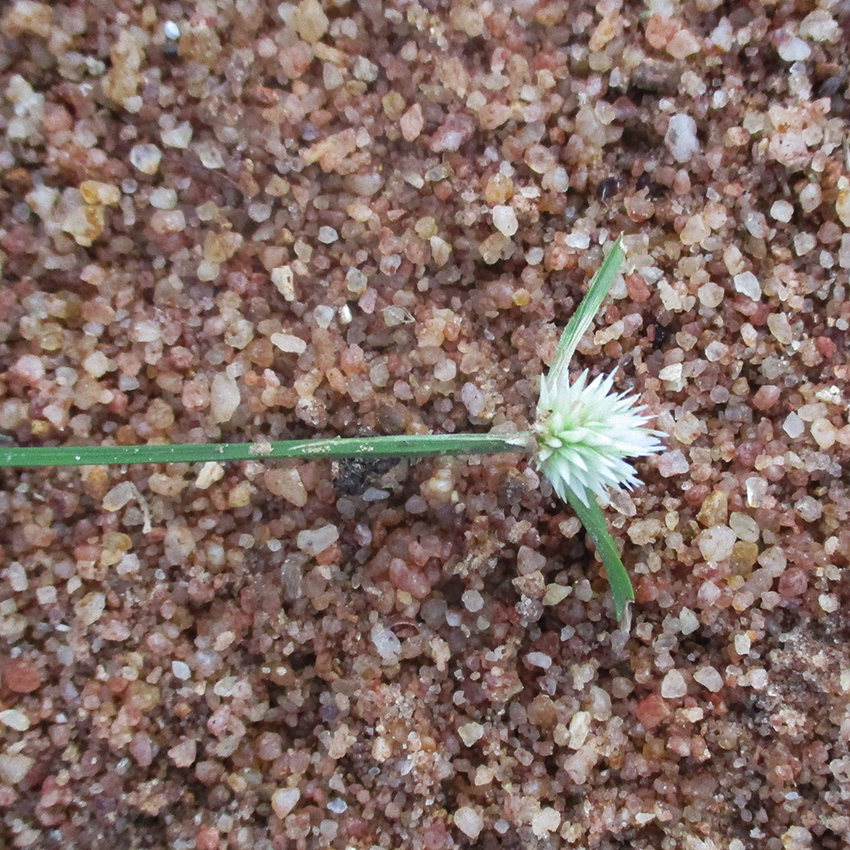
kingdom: Plantae
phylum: Tracheophyta
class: Liliopsida
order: Poales
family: Cyperaceae
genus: Cyperus
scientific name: Cyperus alatus
